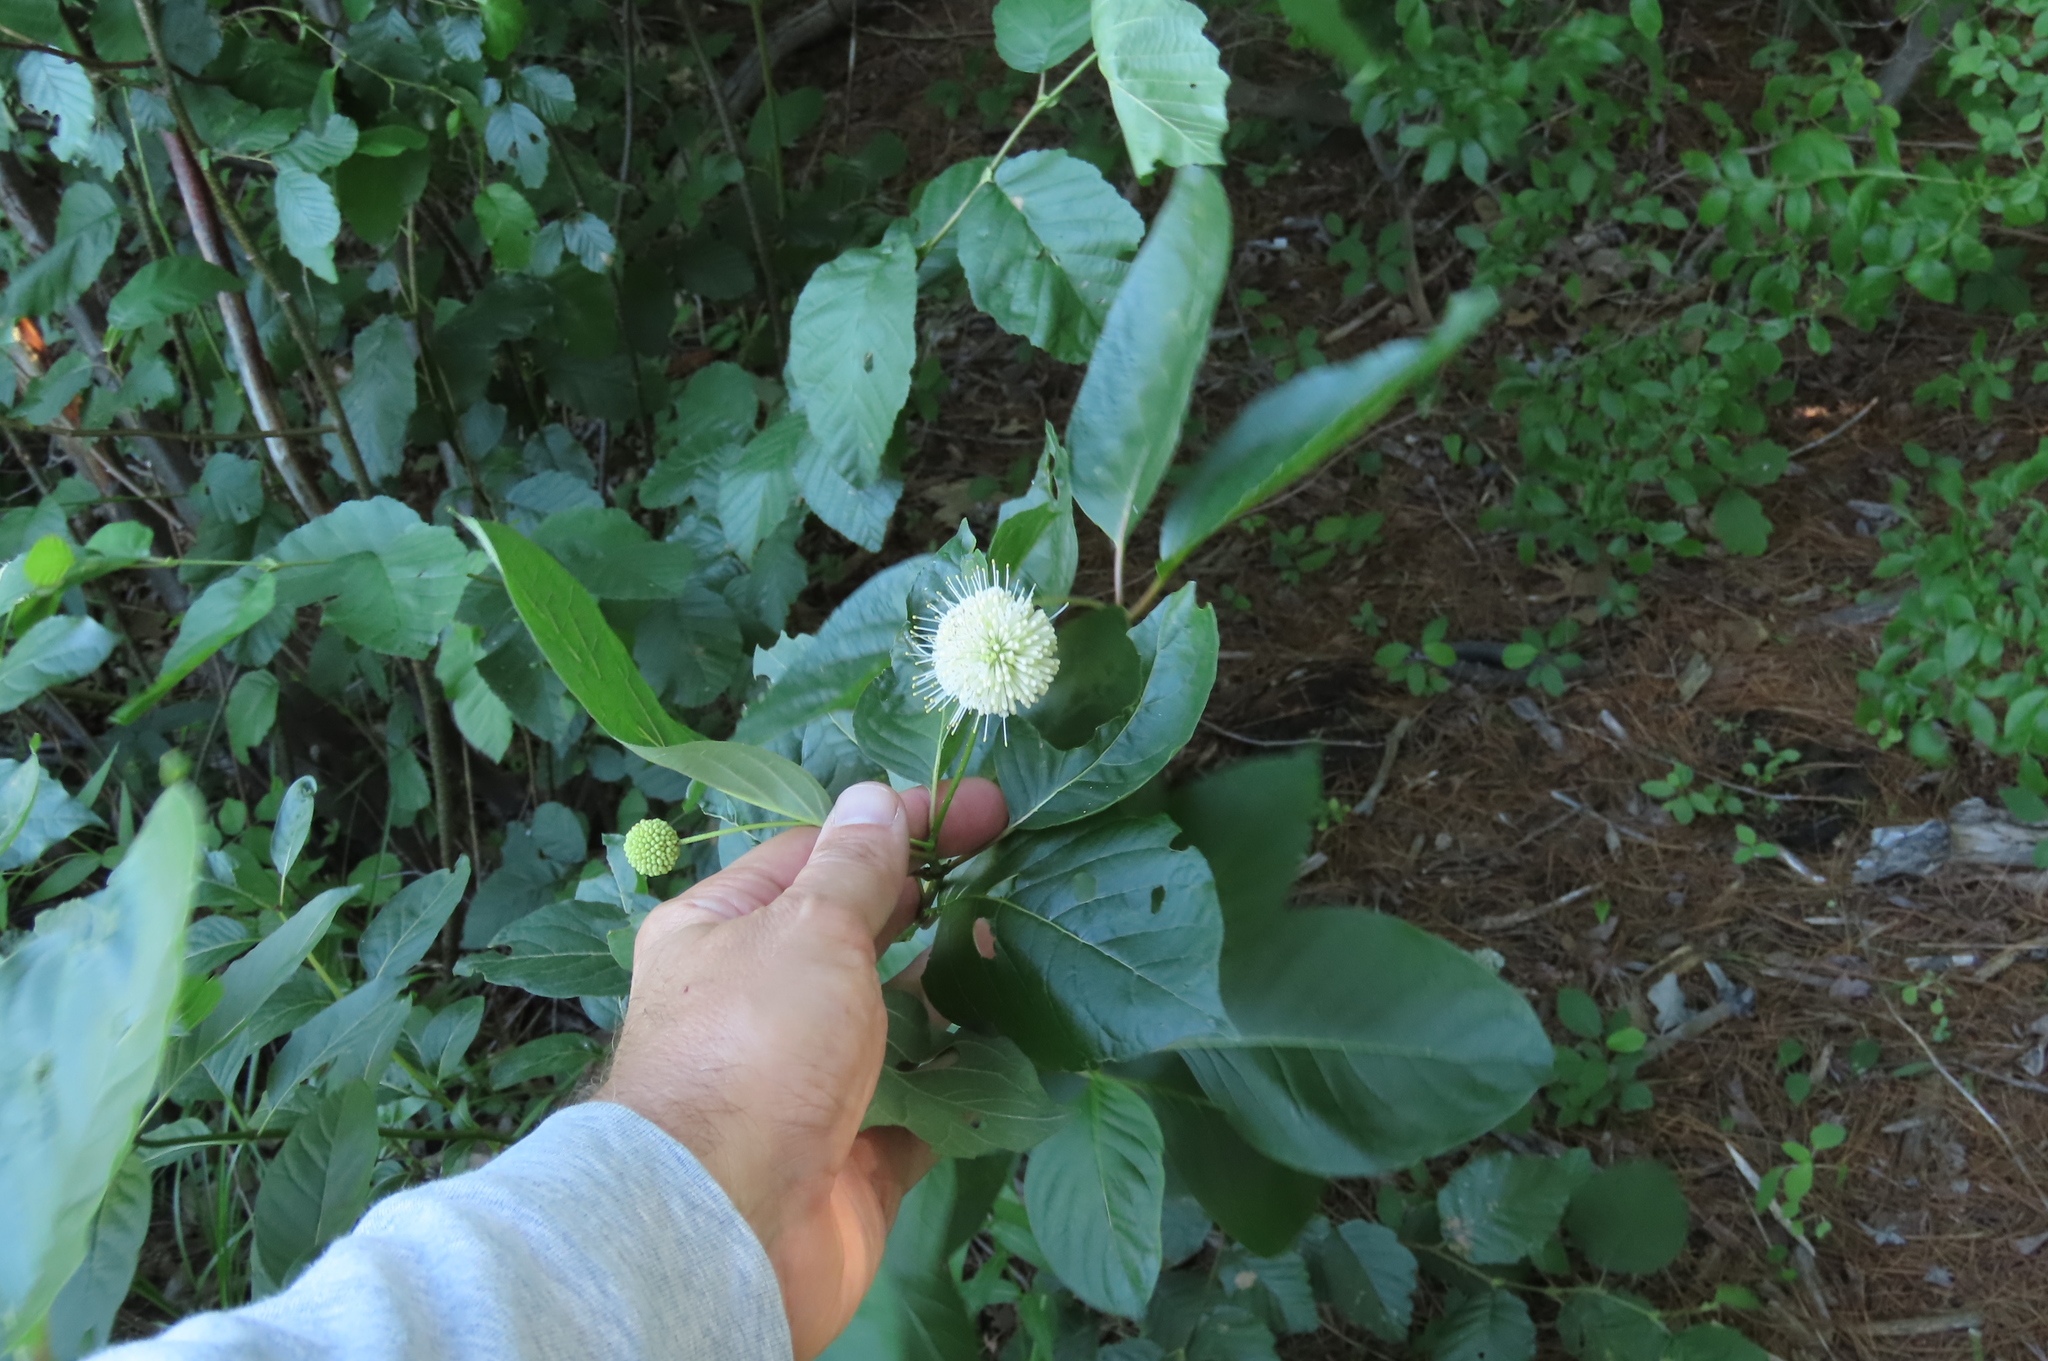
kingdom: Plantae
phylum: Tracheophyta
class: Magnoliopsida
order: Gentianales
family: Rubiaceae
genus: Cephalanthus
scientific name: Cephalanthus occidentalis
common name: Button-willow
